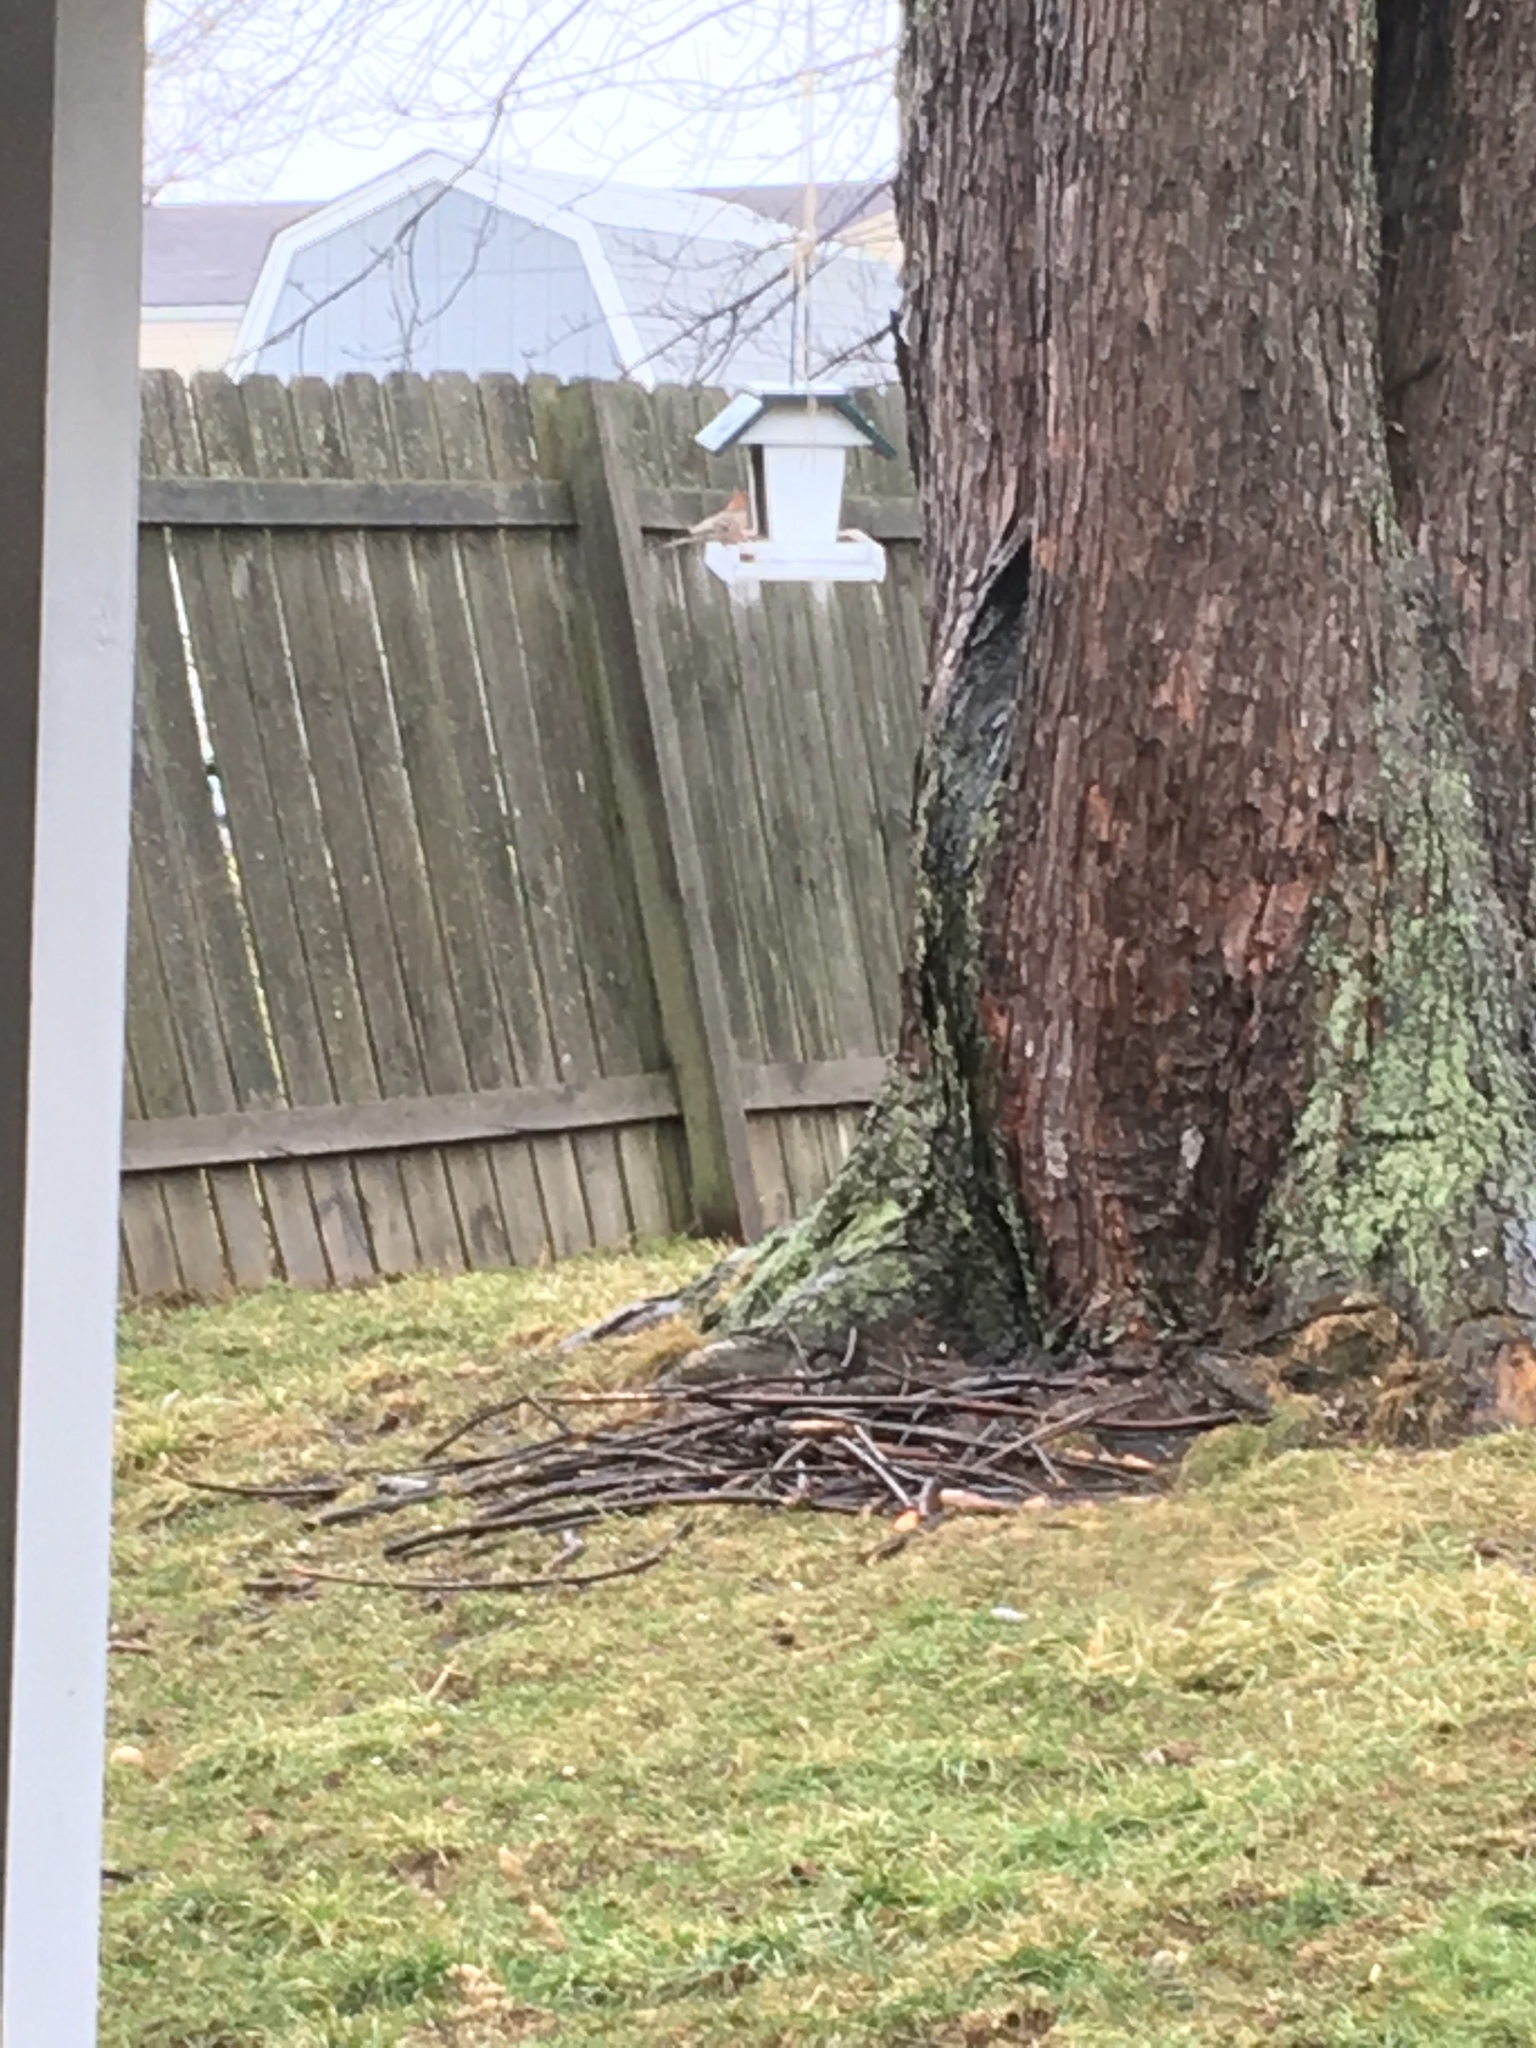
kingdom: Animalia
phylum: Chordata
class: Aves
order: Passeriformes
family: Fringillidae
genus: Haemorhous
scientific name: Haemorhous mexicanus
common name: House finch
